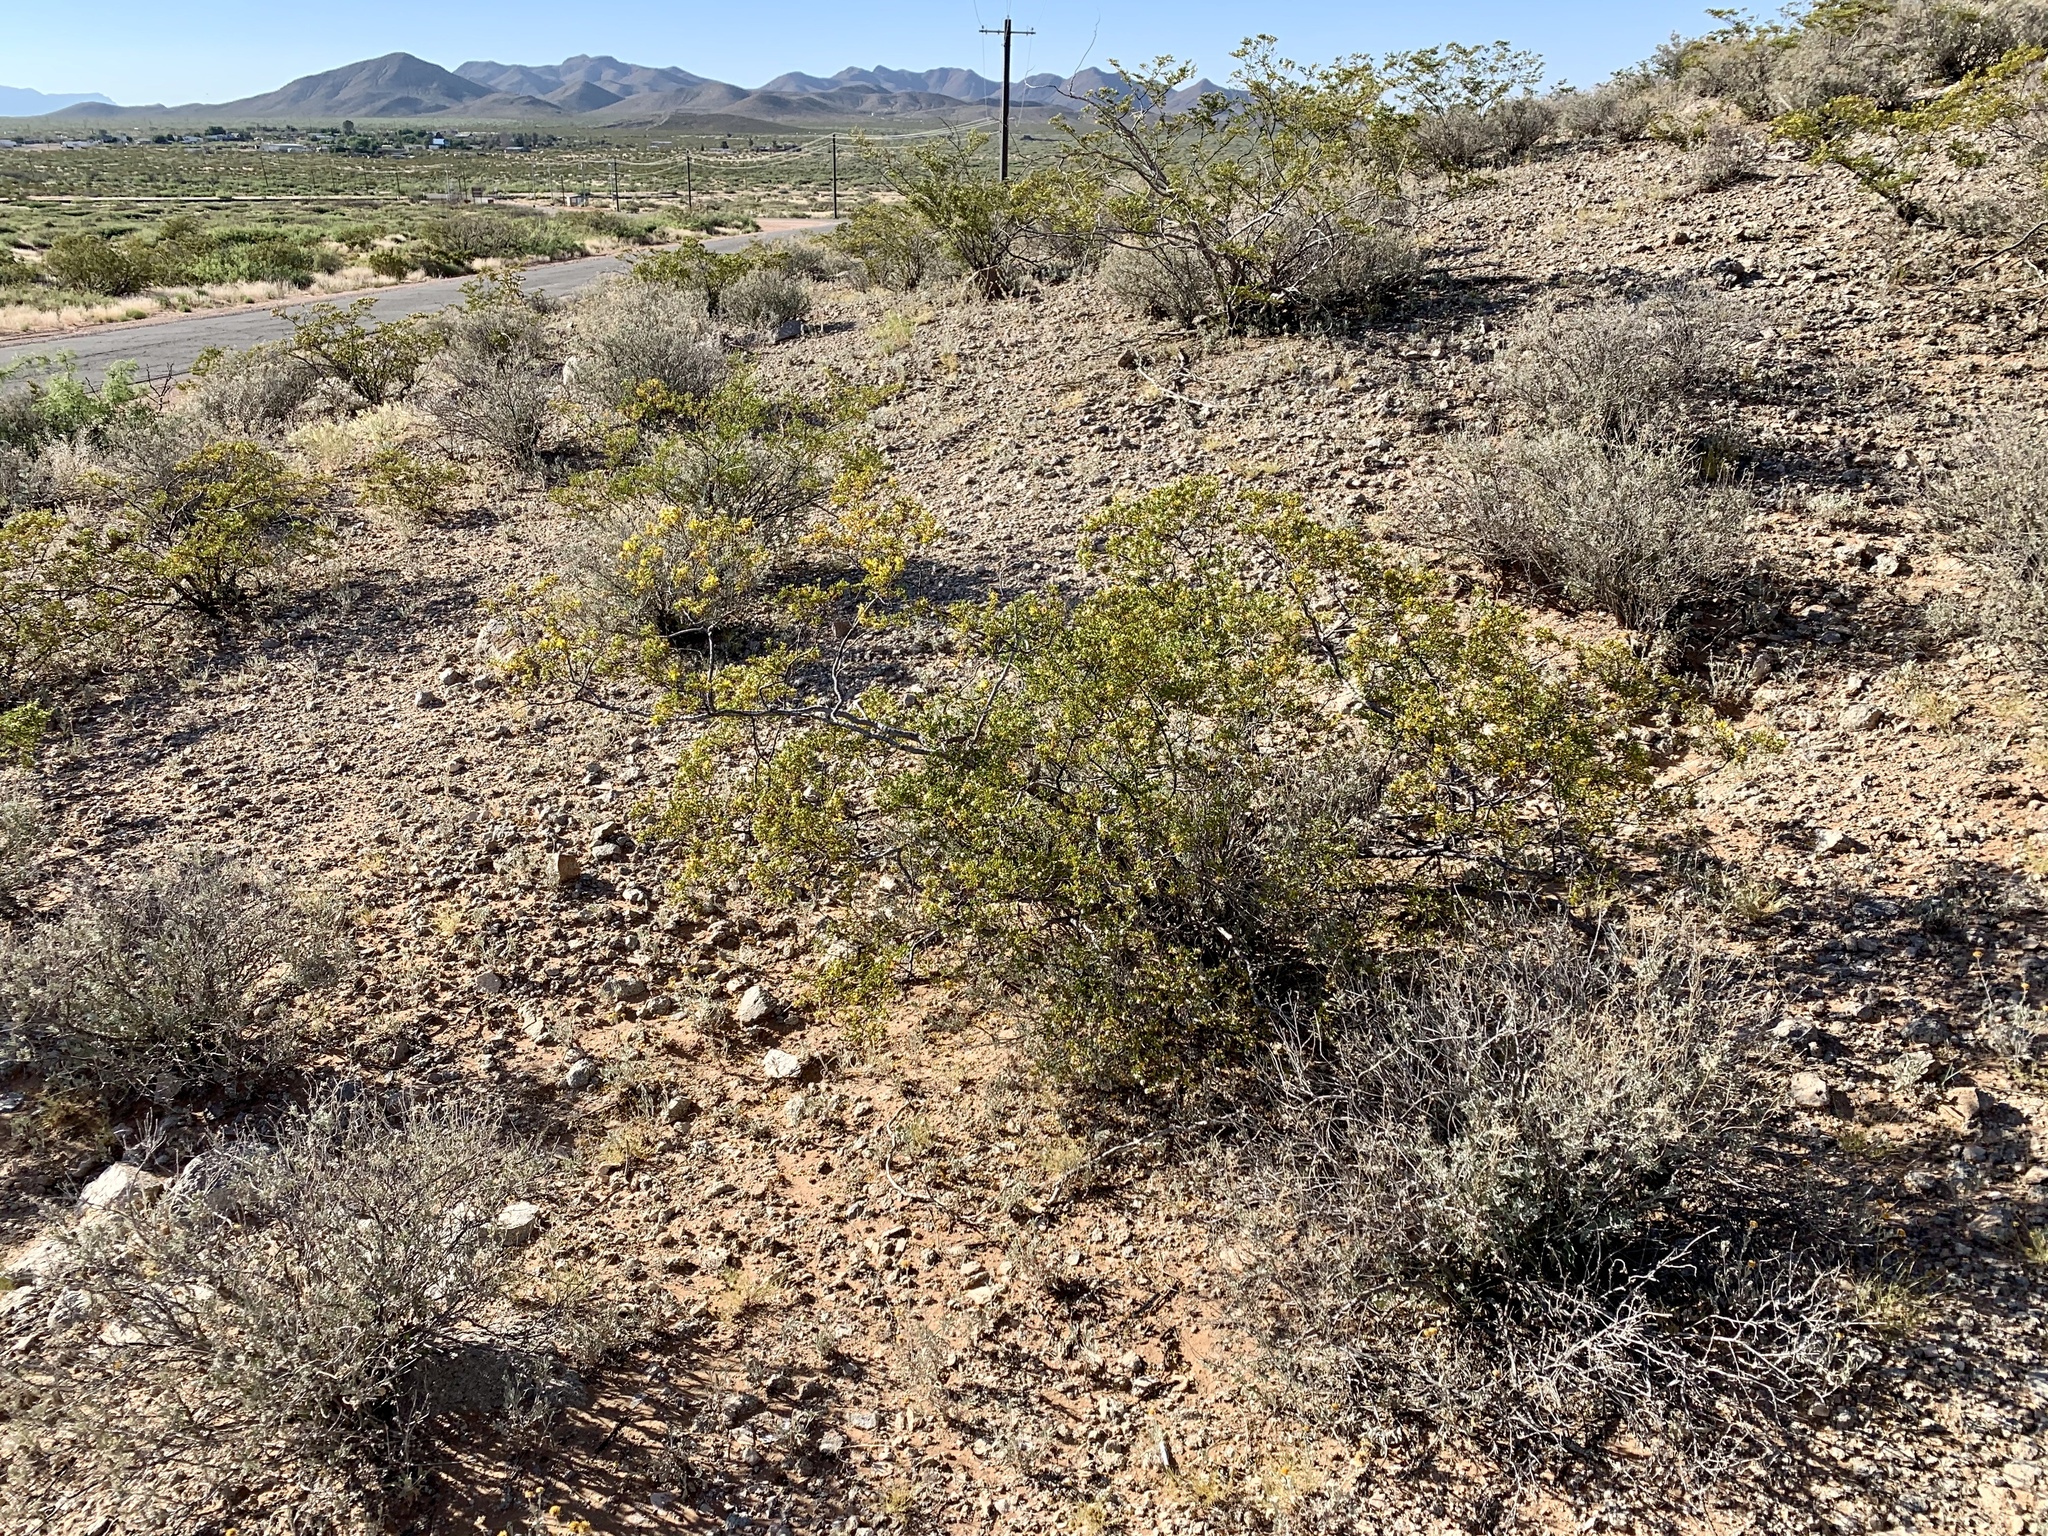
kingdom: Plantae
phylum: Tracheophyta
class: Magnoliopsida
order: Zygophyllales
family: Zygophyllaceae
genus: Larrea
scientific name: Larrea tridentata
